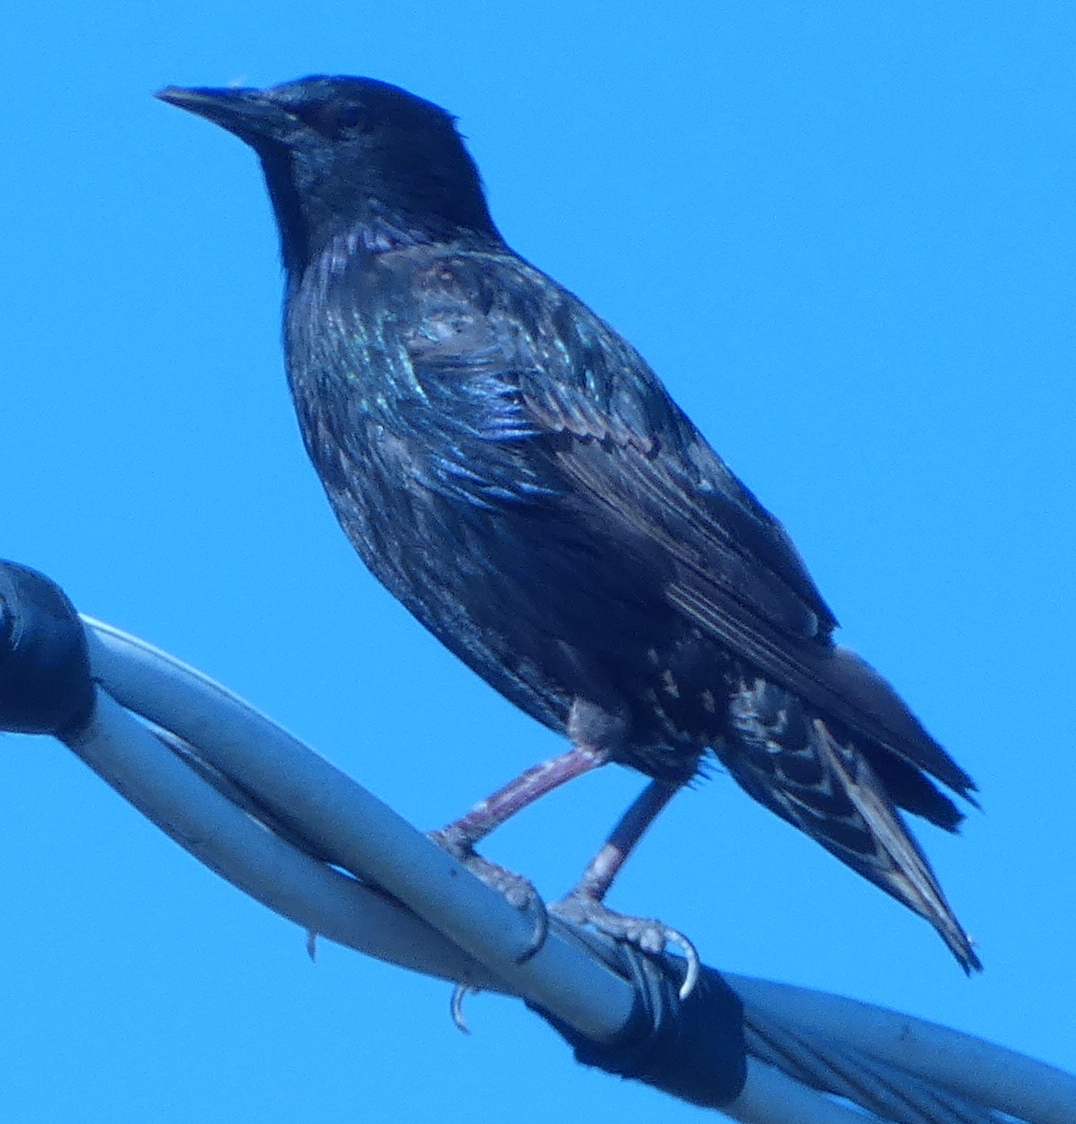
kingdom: Animalia
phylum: Chordata
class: Aves
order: Passeriformes
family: Sturnidae
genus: Sturnus
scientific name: Sturnus vulgaris
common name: Common starling
